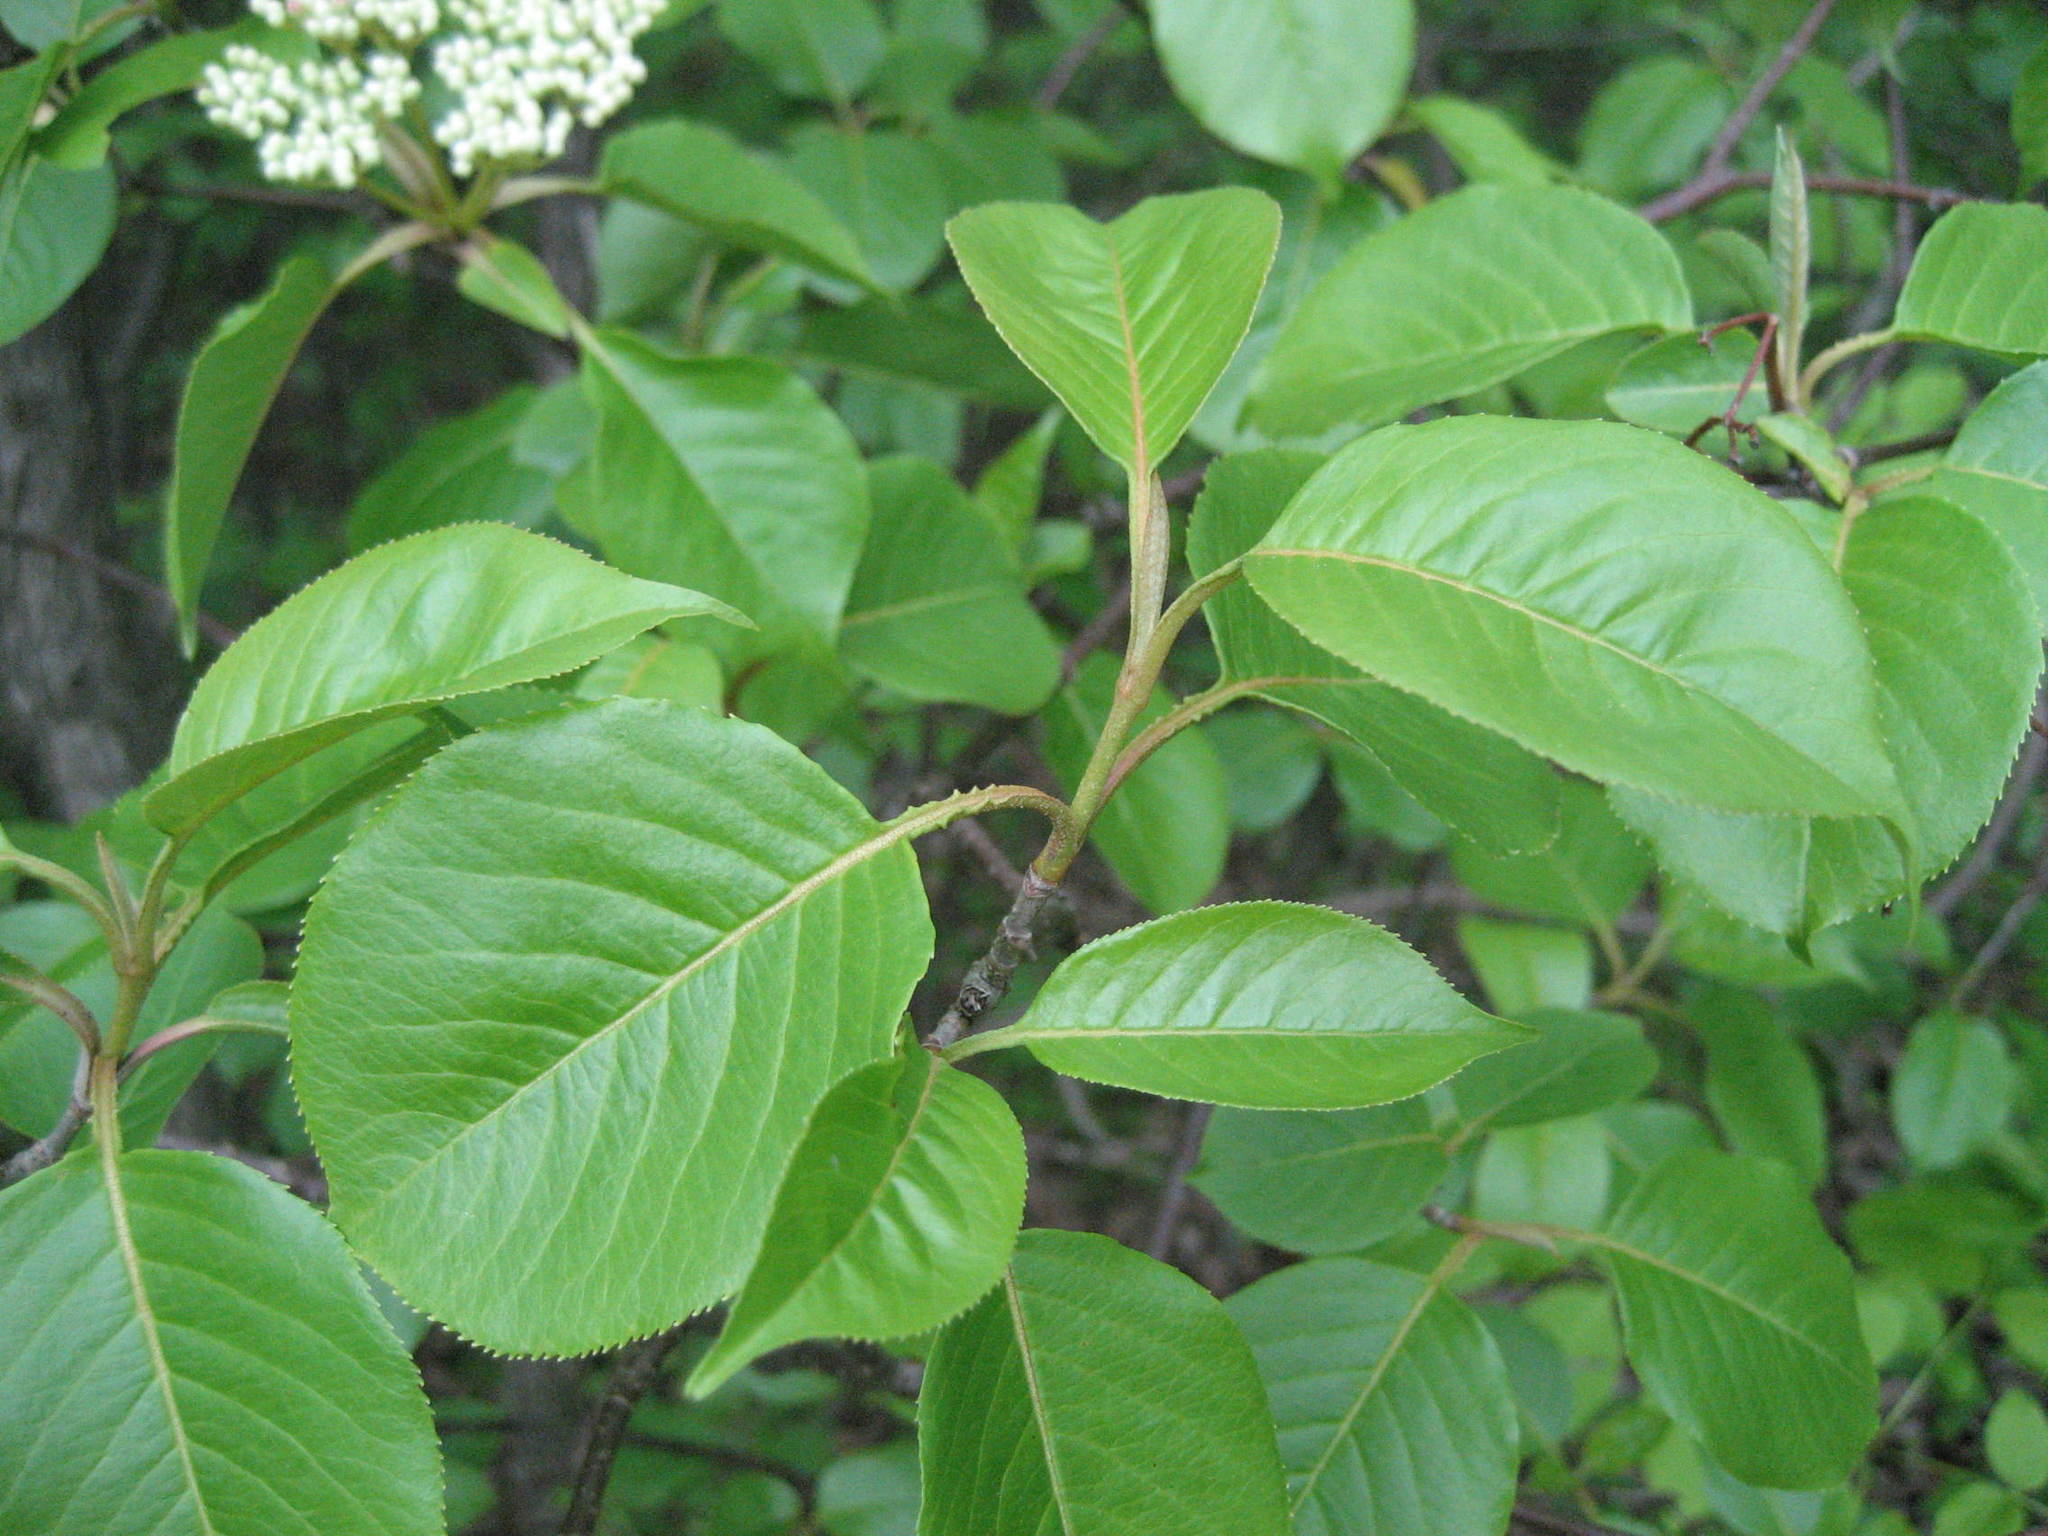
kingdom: Plantae
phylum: Tracheophyta
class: Magnoliopsida
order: Dipsacales
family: Viburnaceae
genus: Viburnum
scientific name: Viburnum lentago
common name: Black haw
